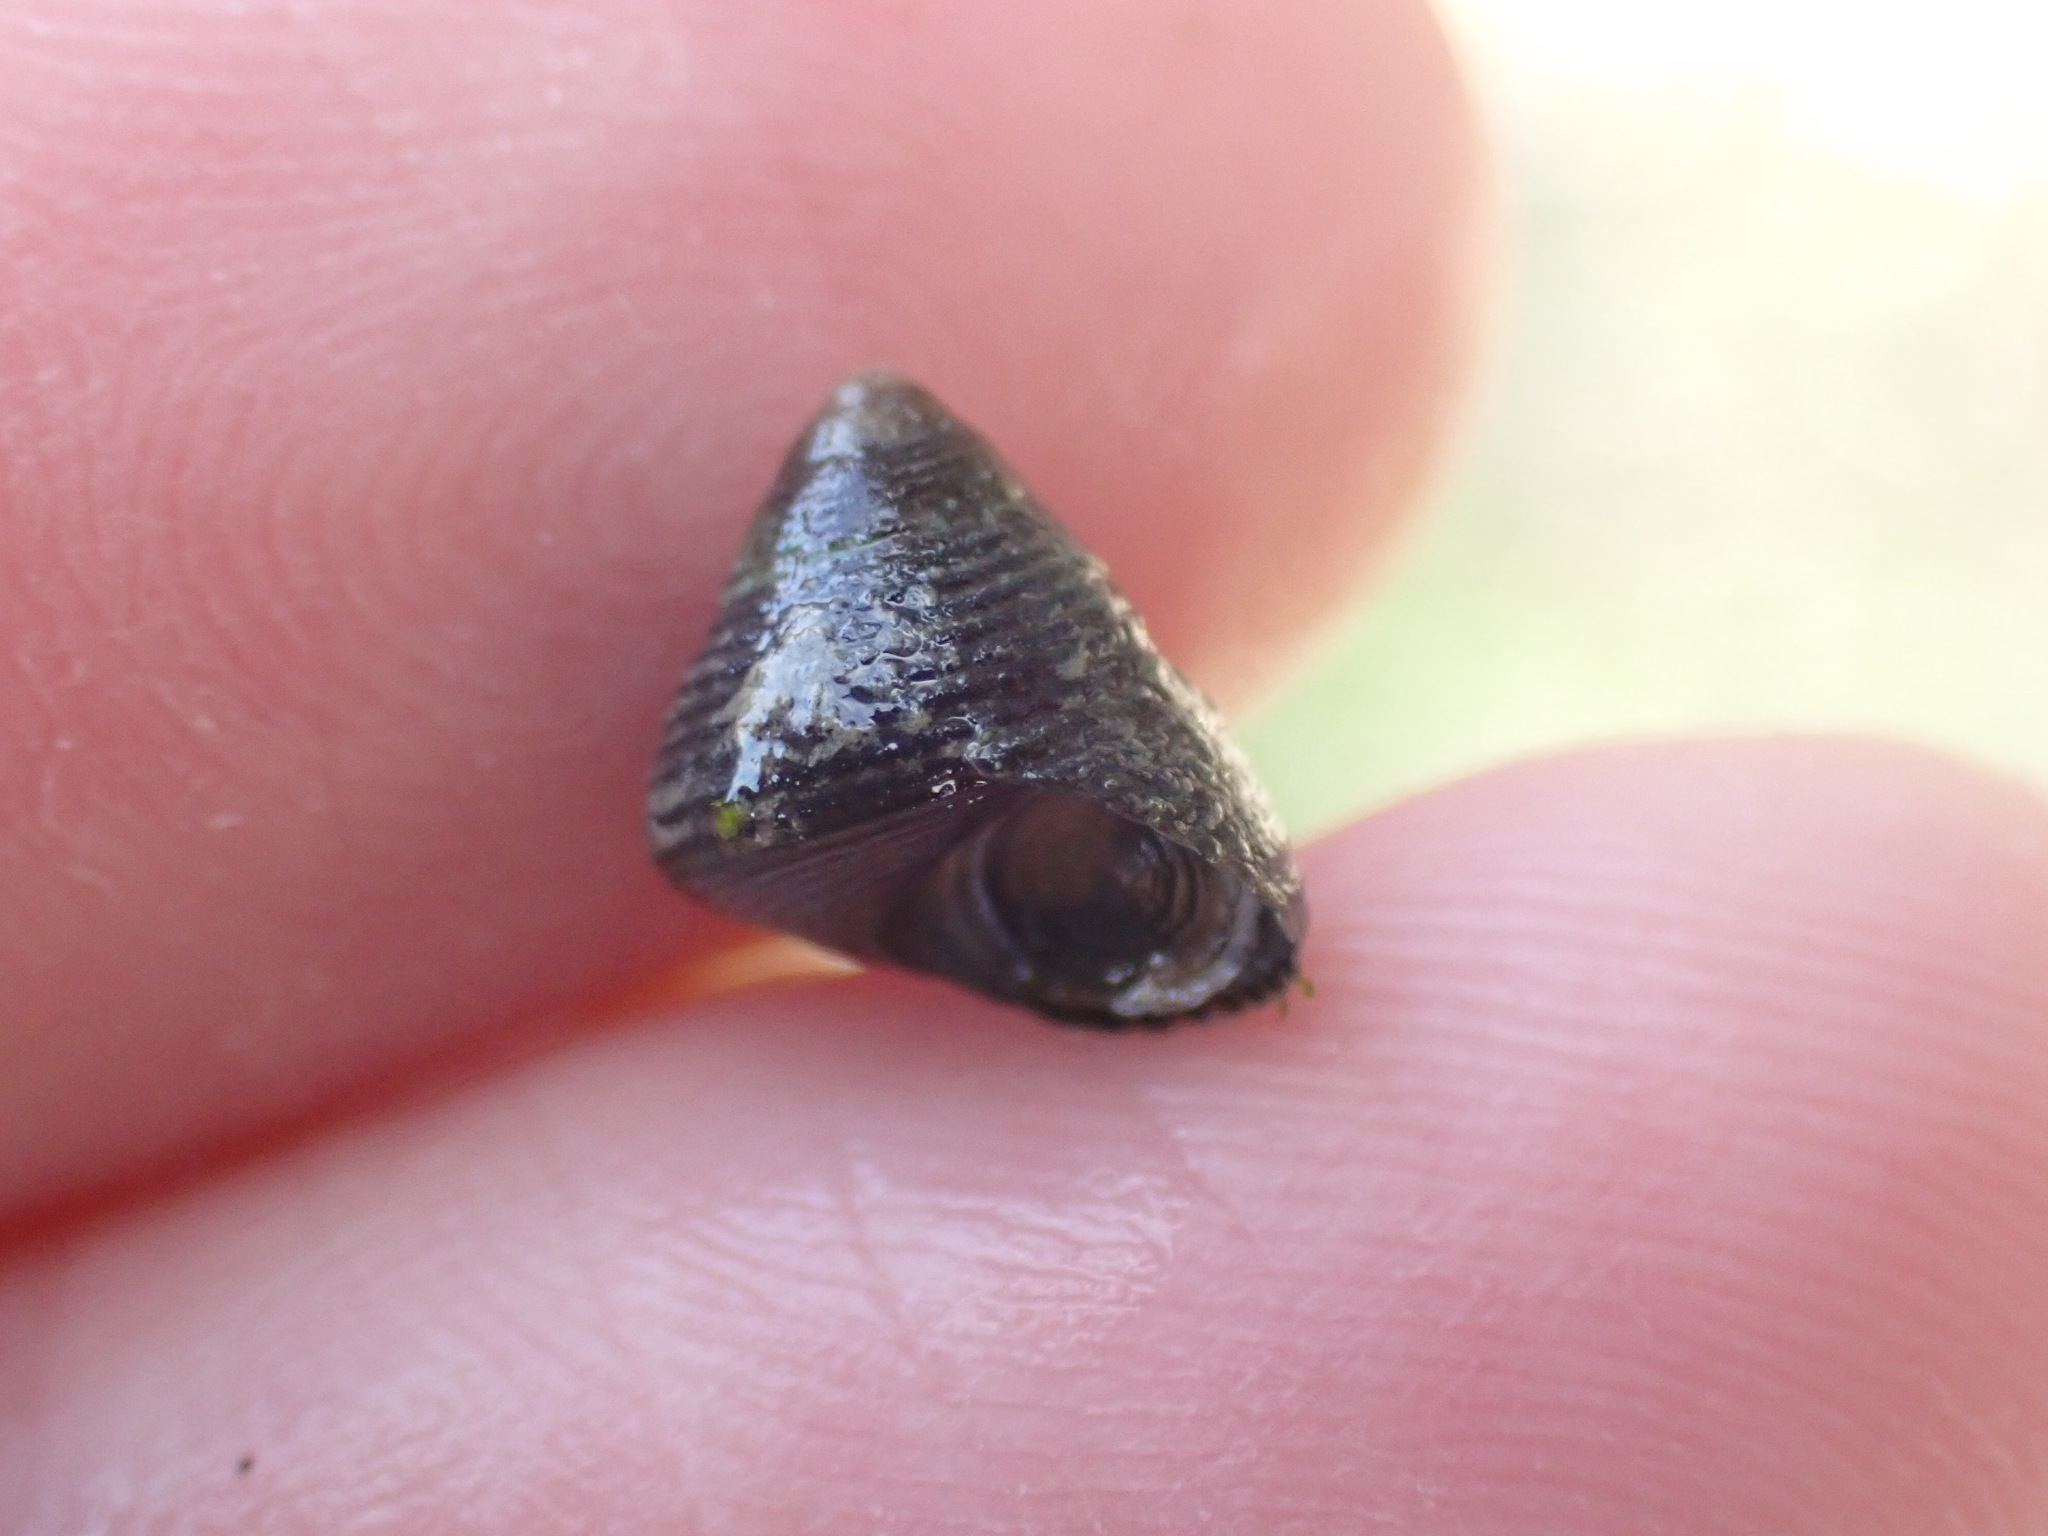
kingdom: Animalia
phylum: Mollusca
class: Gastropoda
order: Trochida
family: Trochidae
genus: Micrelenchus
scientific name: Micrelenchus huttonii
